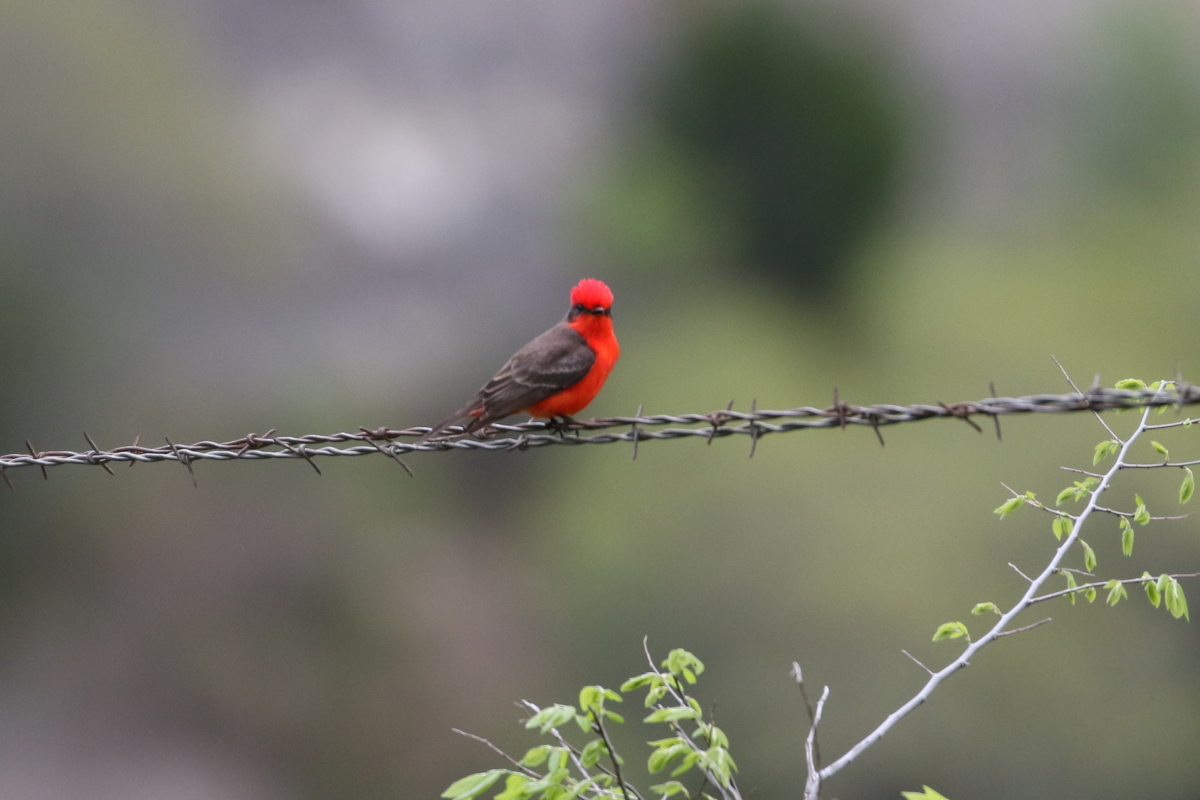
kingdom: Animalia
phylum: Chordata
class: Aves
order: Passeriformes
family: Tyrannidae
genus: Pyrocephalus
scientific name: Pyrocephalus rubinus
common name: Vermilion flycatcher
